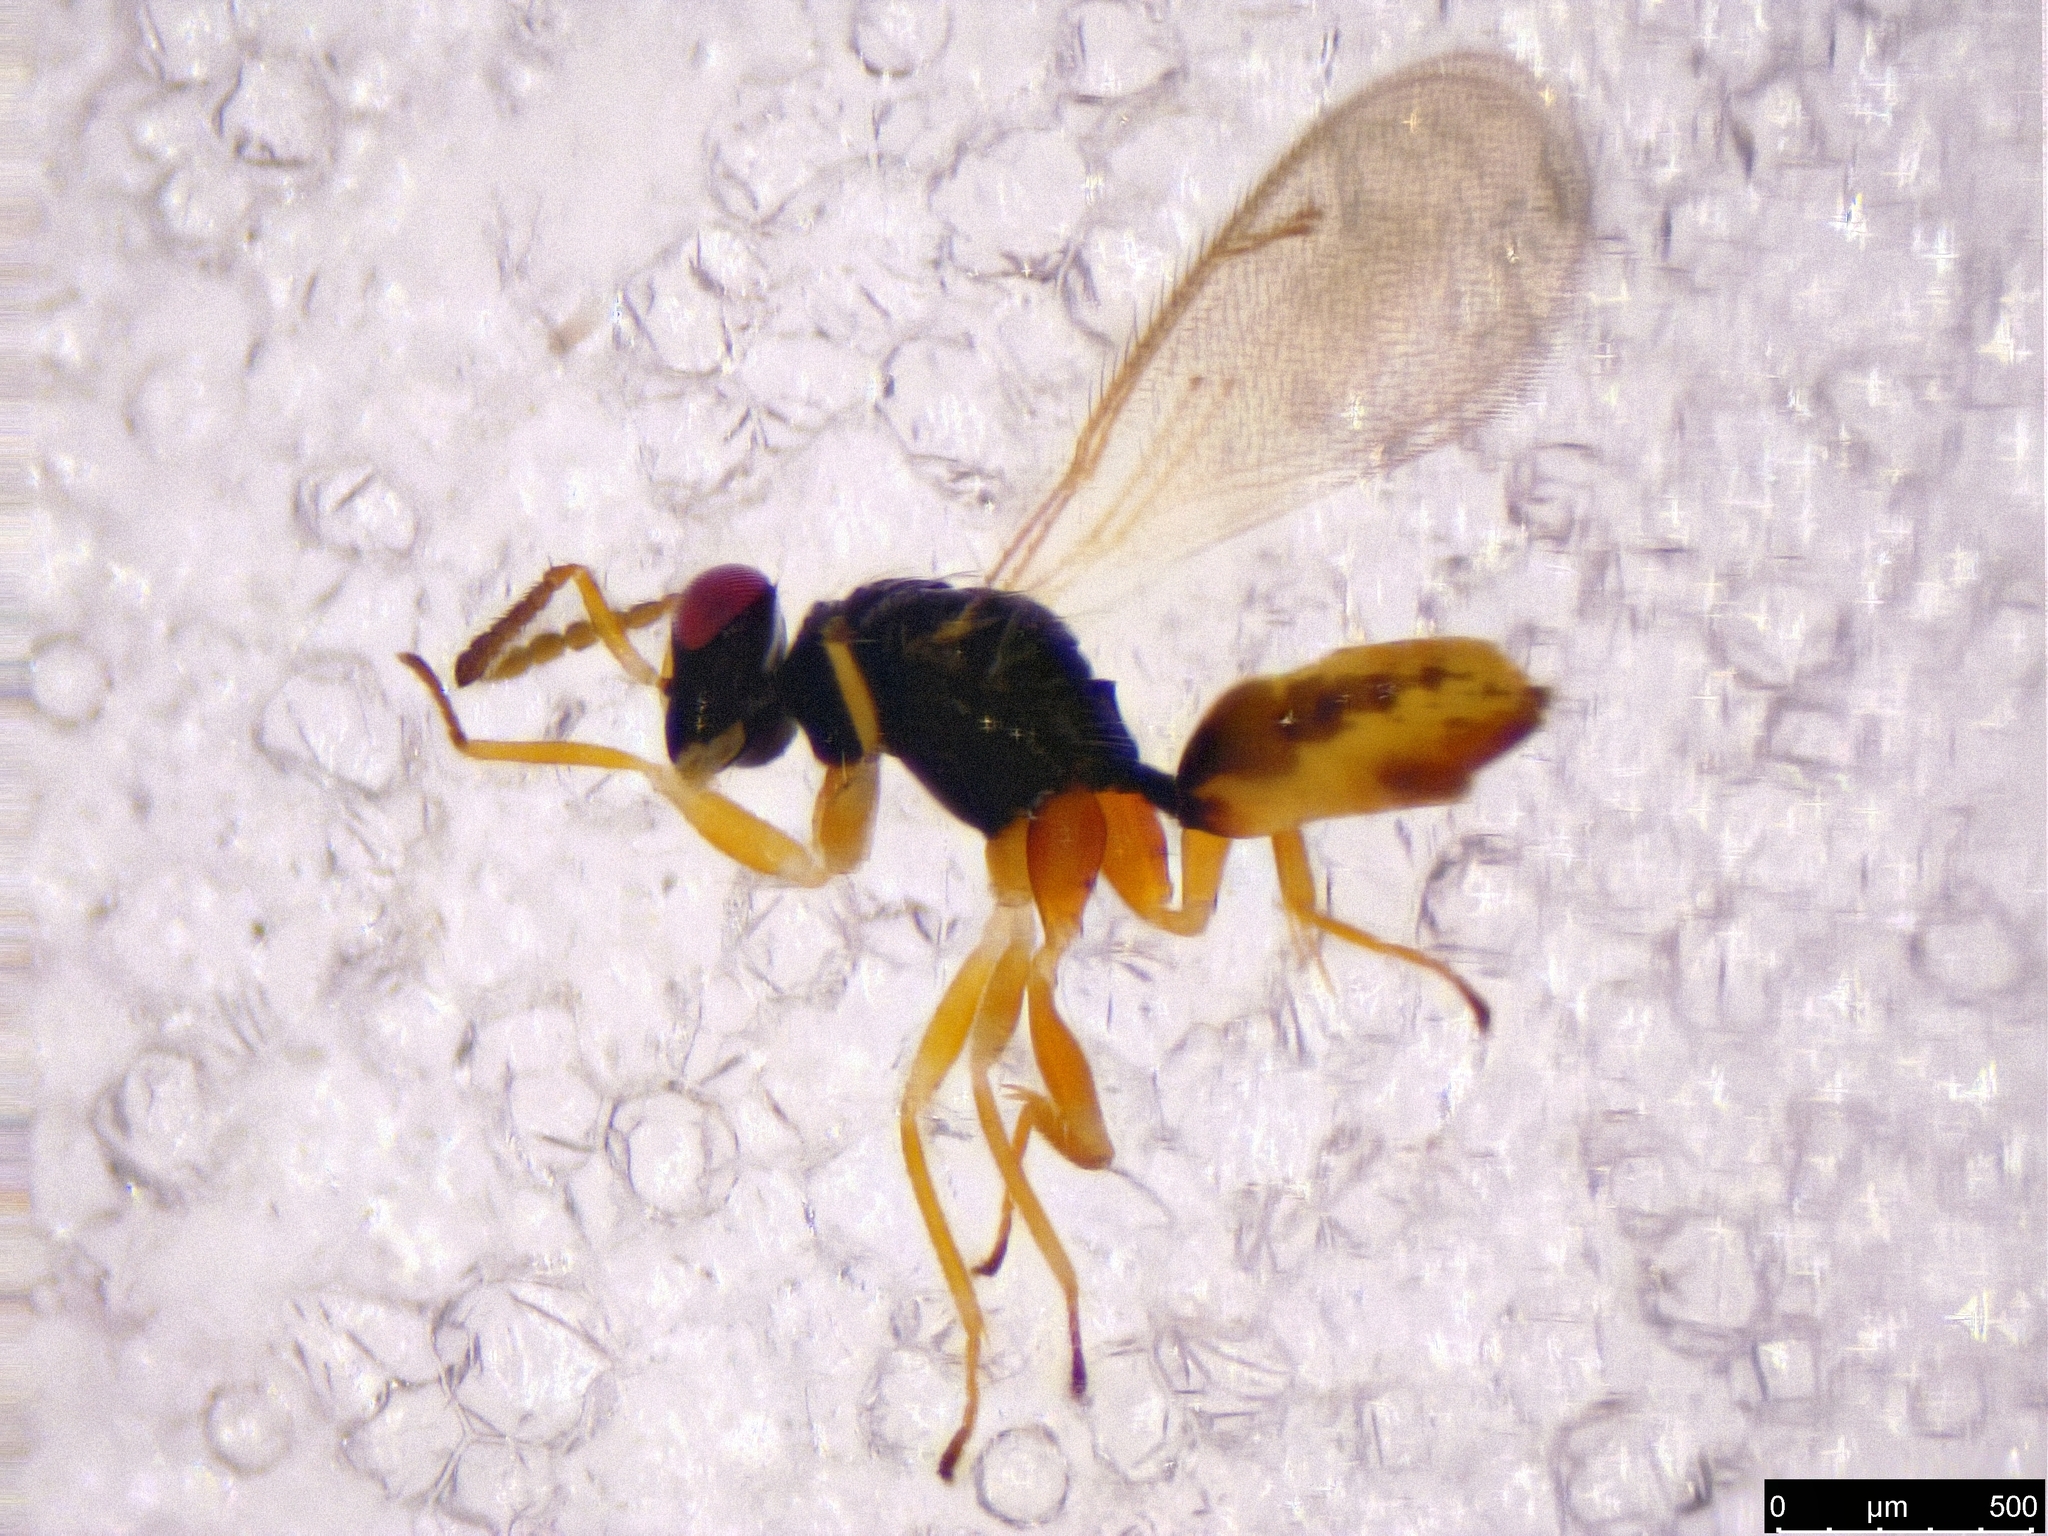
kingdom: Animalia
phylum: Arthropoda
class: Insecta
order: Hymenoptera
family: Eulophidae
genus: Euplectrus
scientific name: Euplectrus
